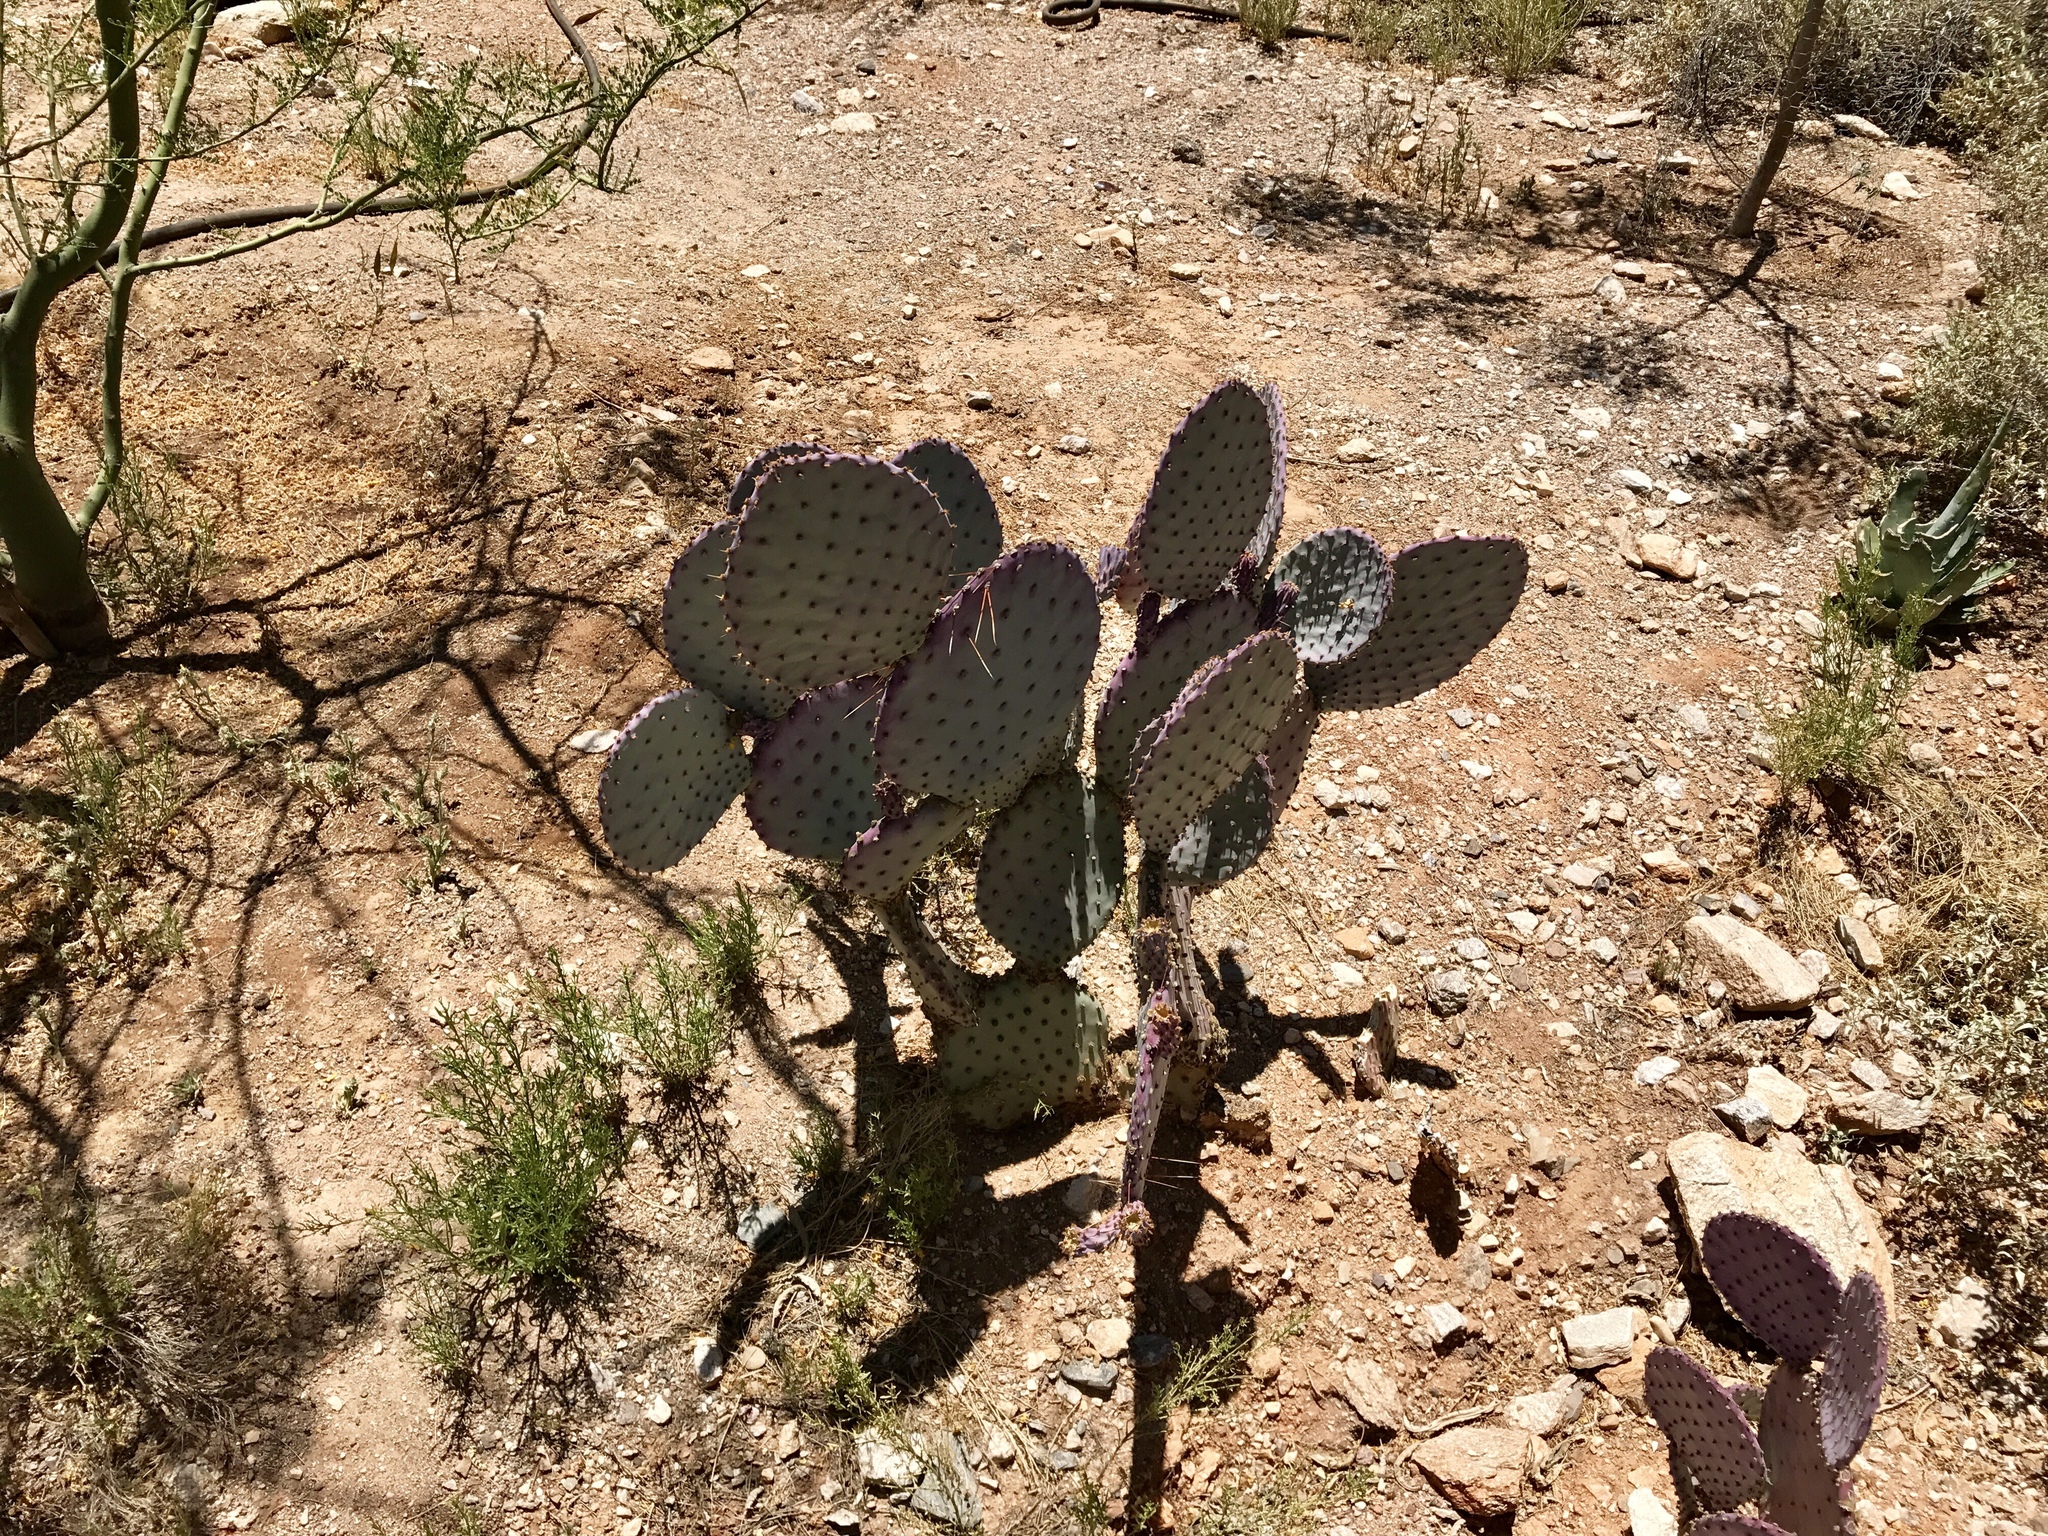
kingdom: Plantae
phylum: Tracheophyta
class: Magnoliopsida
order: Caryophyllales
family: Cactaceae
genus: Opuntia
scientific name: Opuntia gosseliniana
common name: Violet prickly-pear
